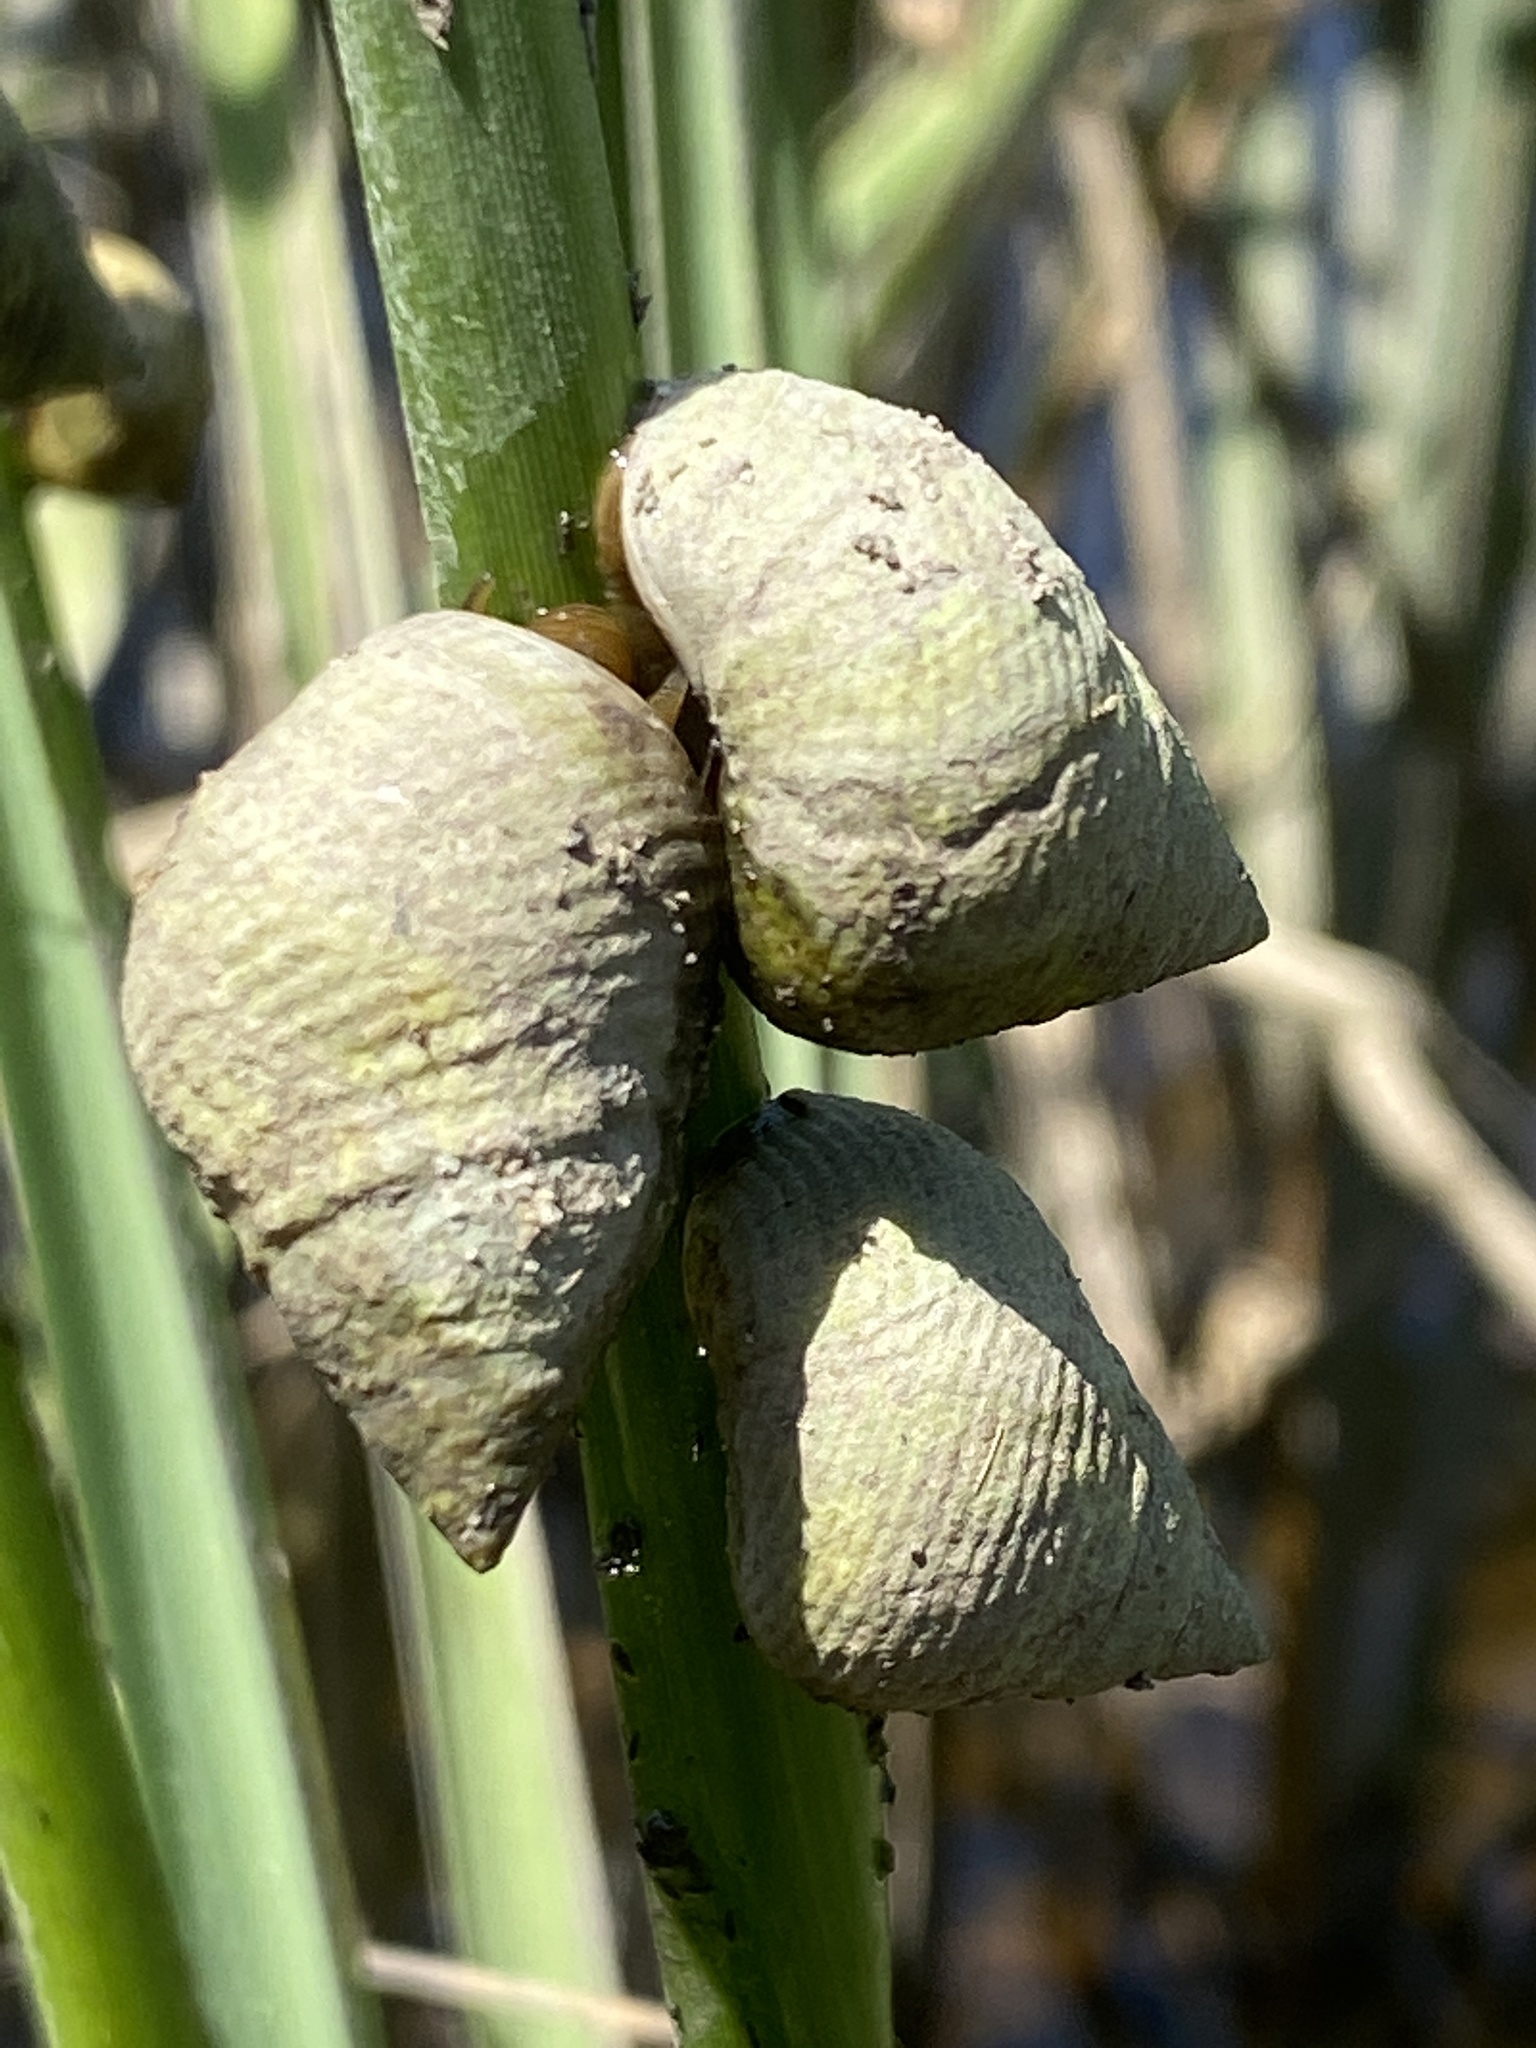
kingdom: Animalia
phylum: Mollusca
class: Gastropoda
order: Littorinimorpha
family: Littorinidae
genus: Littoraria
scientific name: Littoraria irrorata
